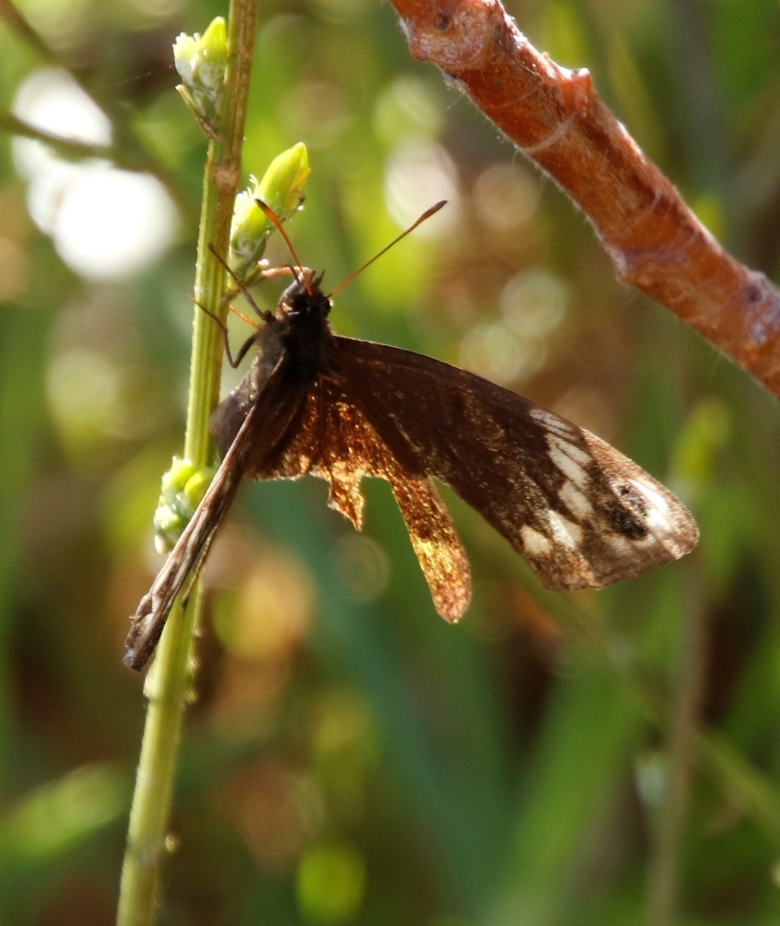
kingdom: Animalia
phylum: Arthropoda
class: Insecta
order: Lepidoptera
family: Nymphalidae
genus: Dira
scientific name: Dira clytus
